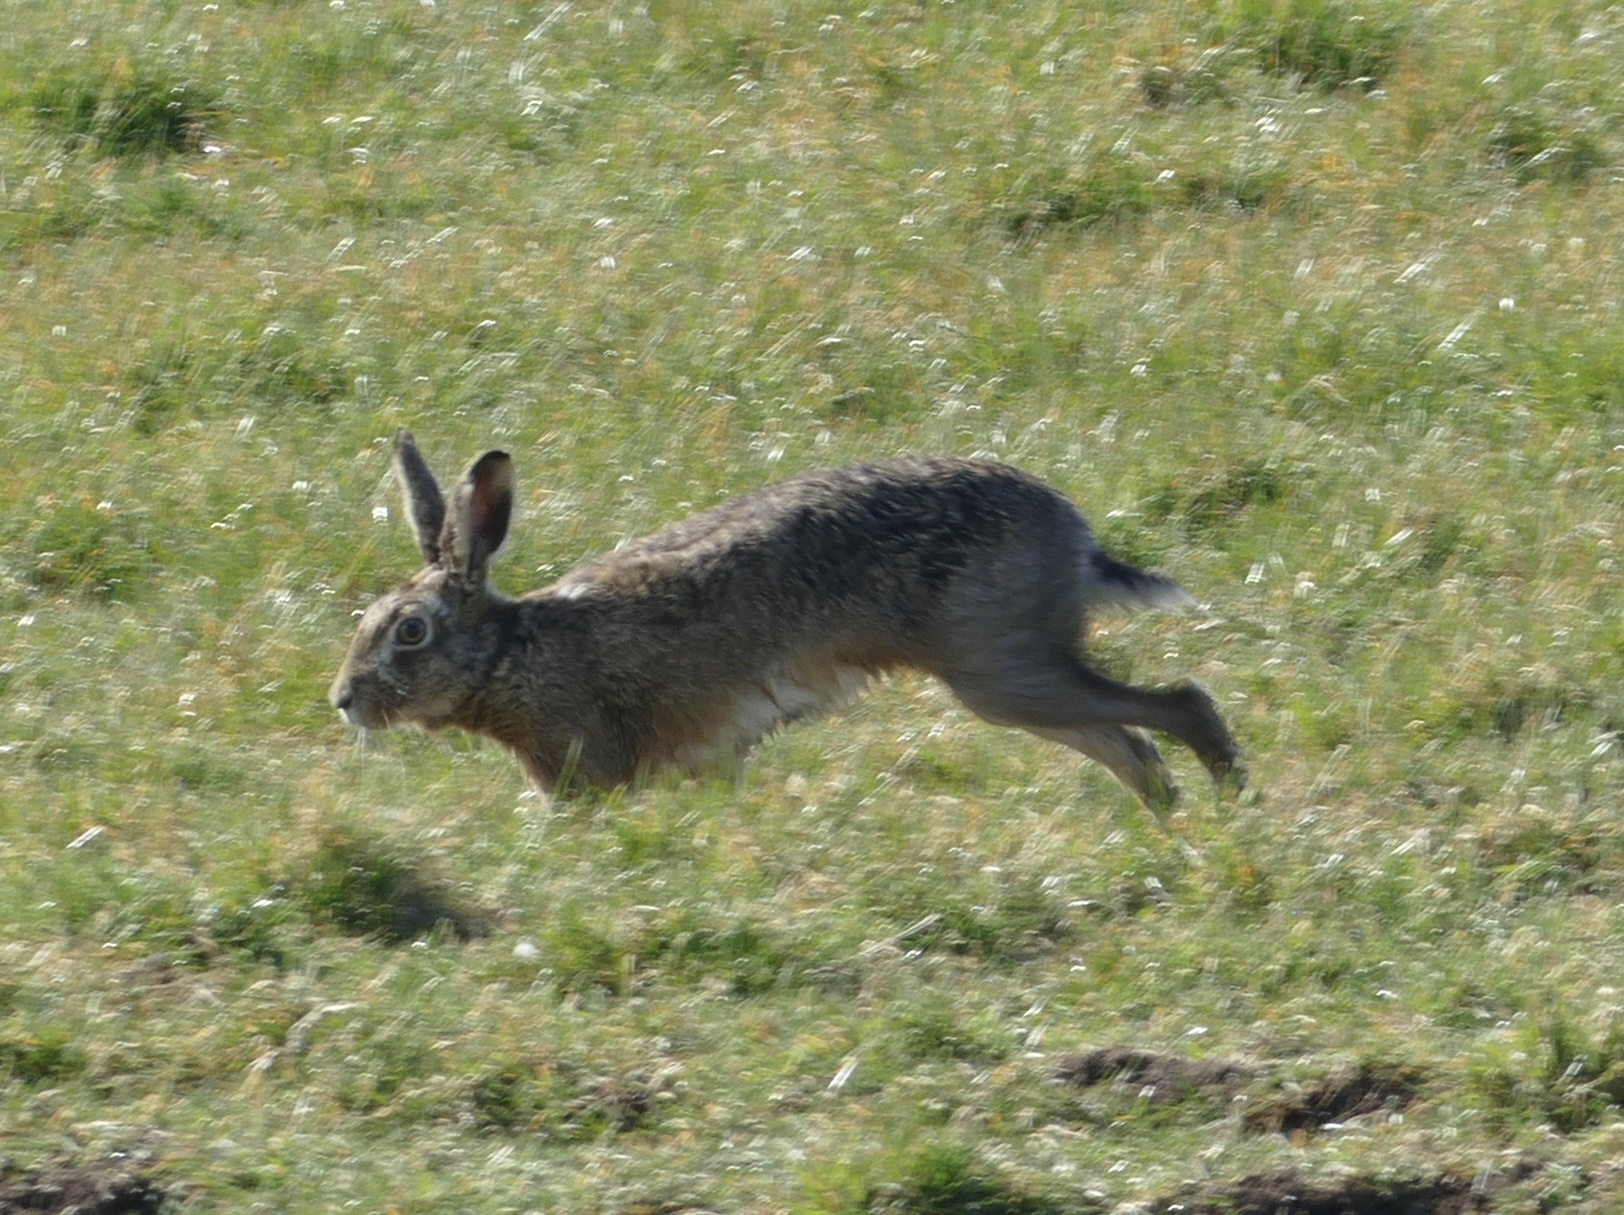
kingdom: Animalia
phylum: Chordata
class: Mammalia
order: Lagomorpha
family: Leporidae
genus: Lepus
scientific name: Lepus europaeus
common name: European hare
